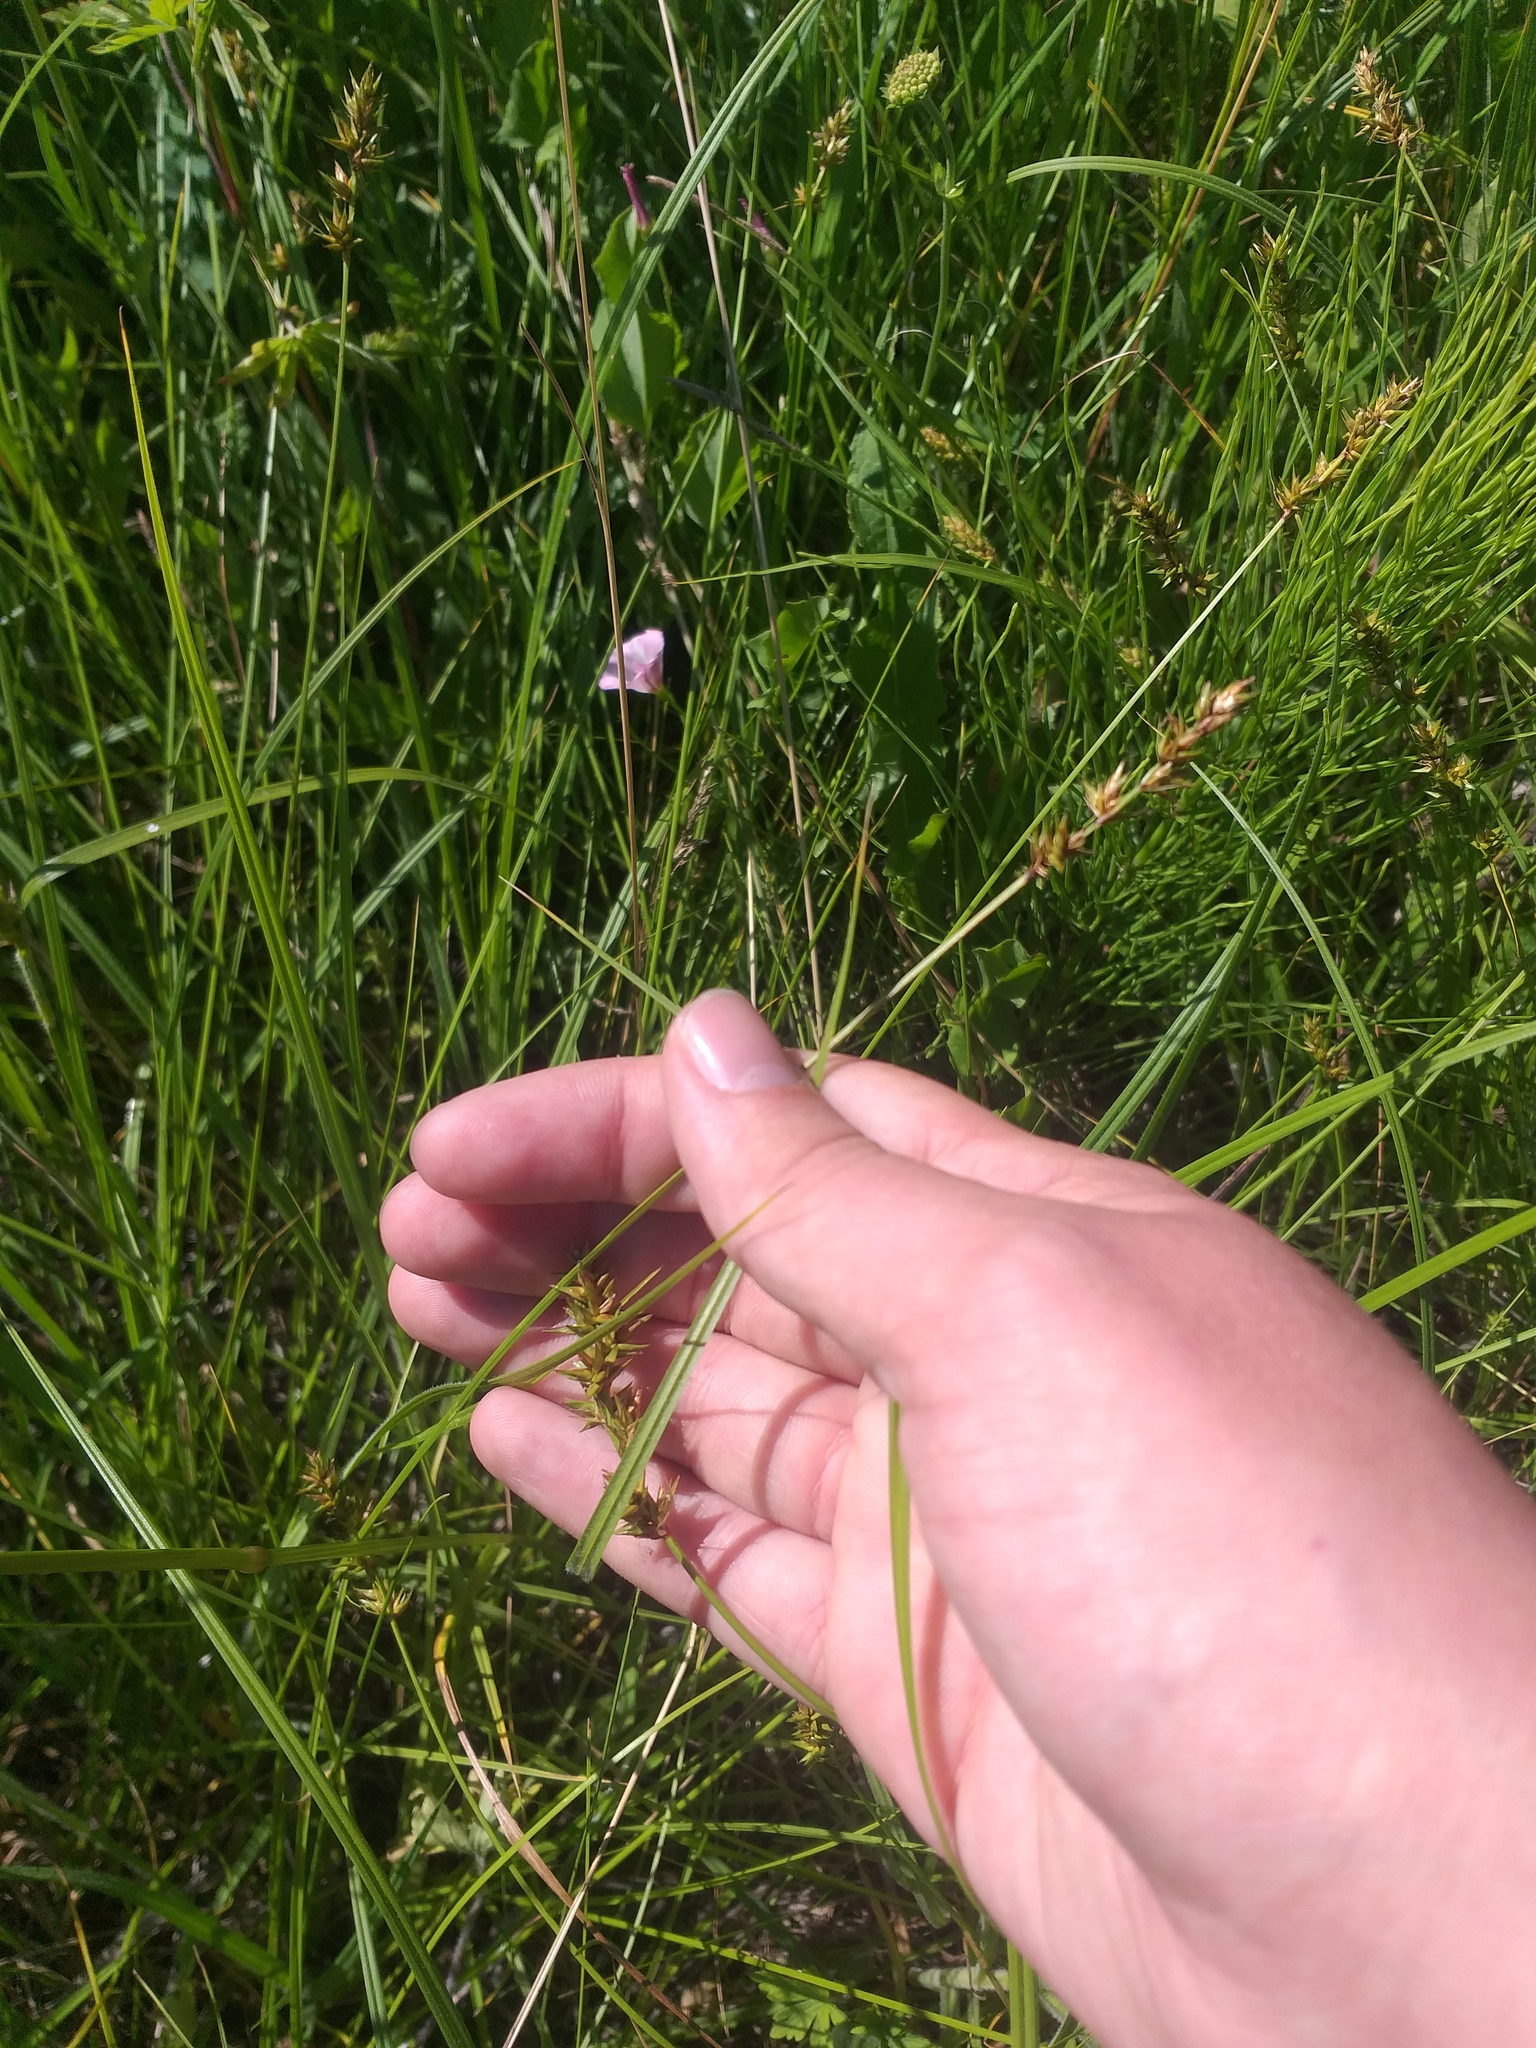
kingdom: Plantae
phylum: Tracheophyta
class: Liliopsida
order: Poales
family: Cyperaceae
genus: Carex
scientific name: Carex spicata
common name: Spiked sedge
